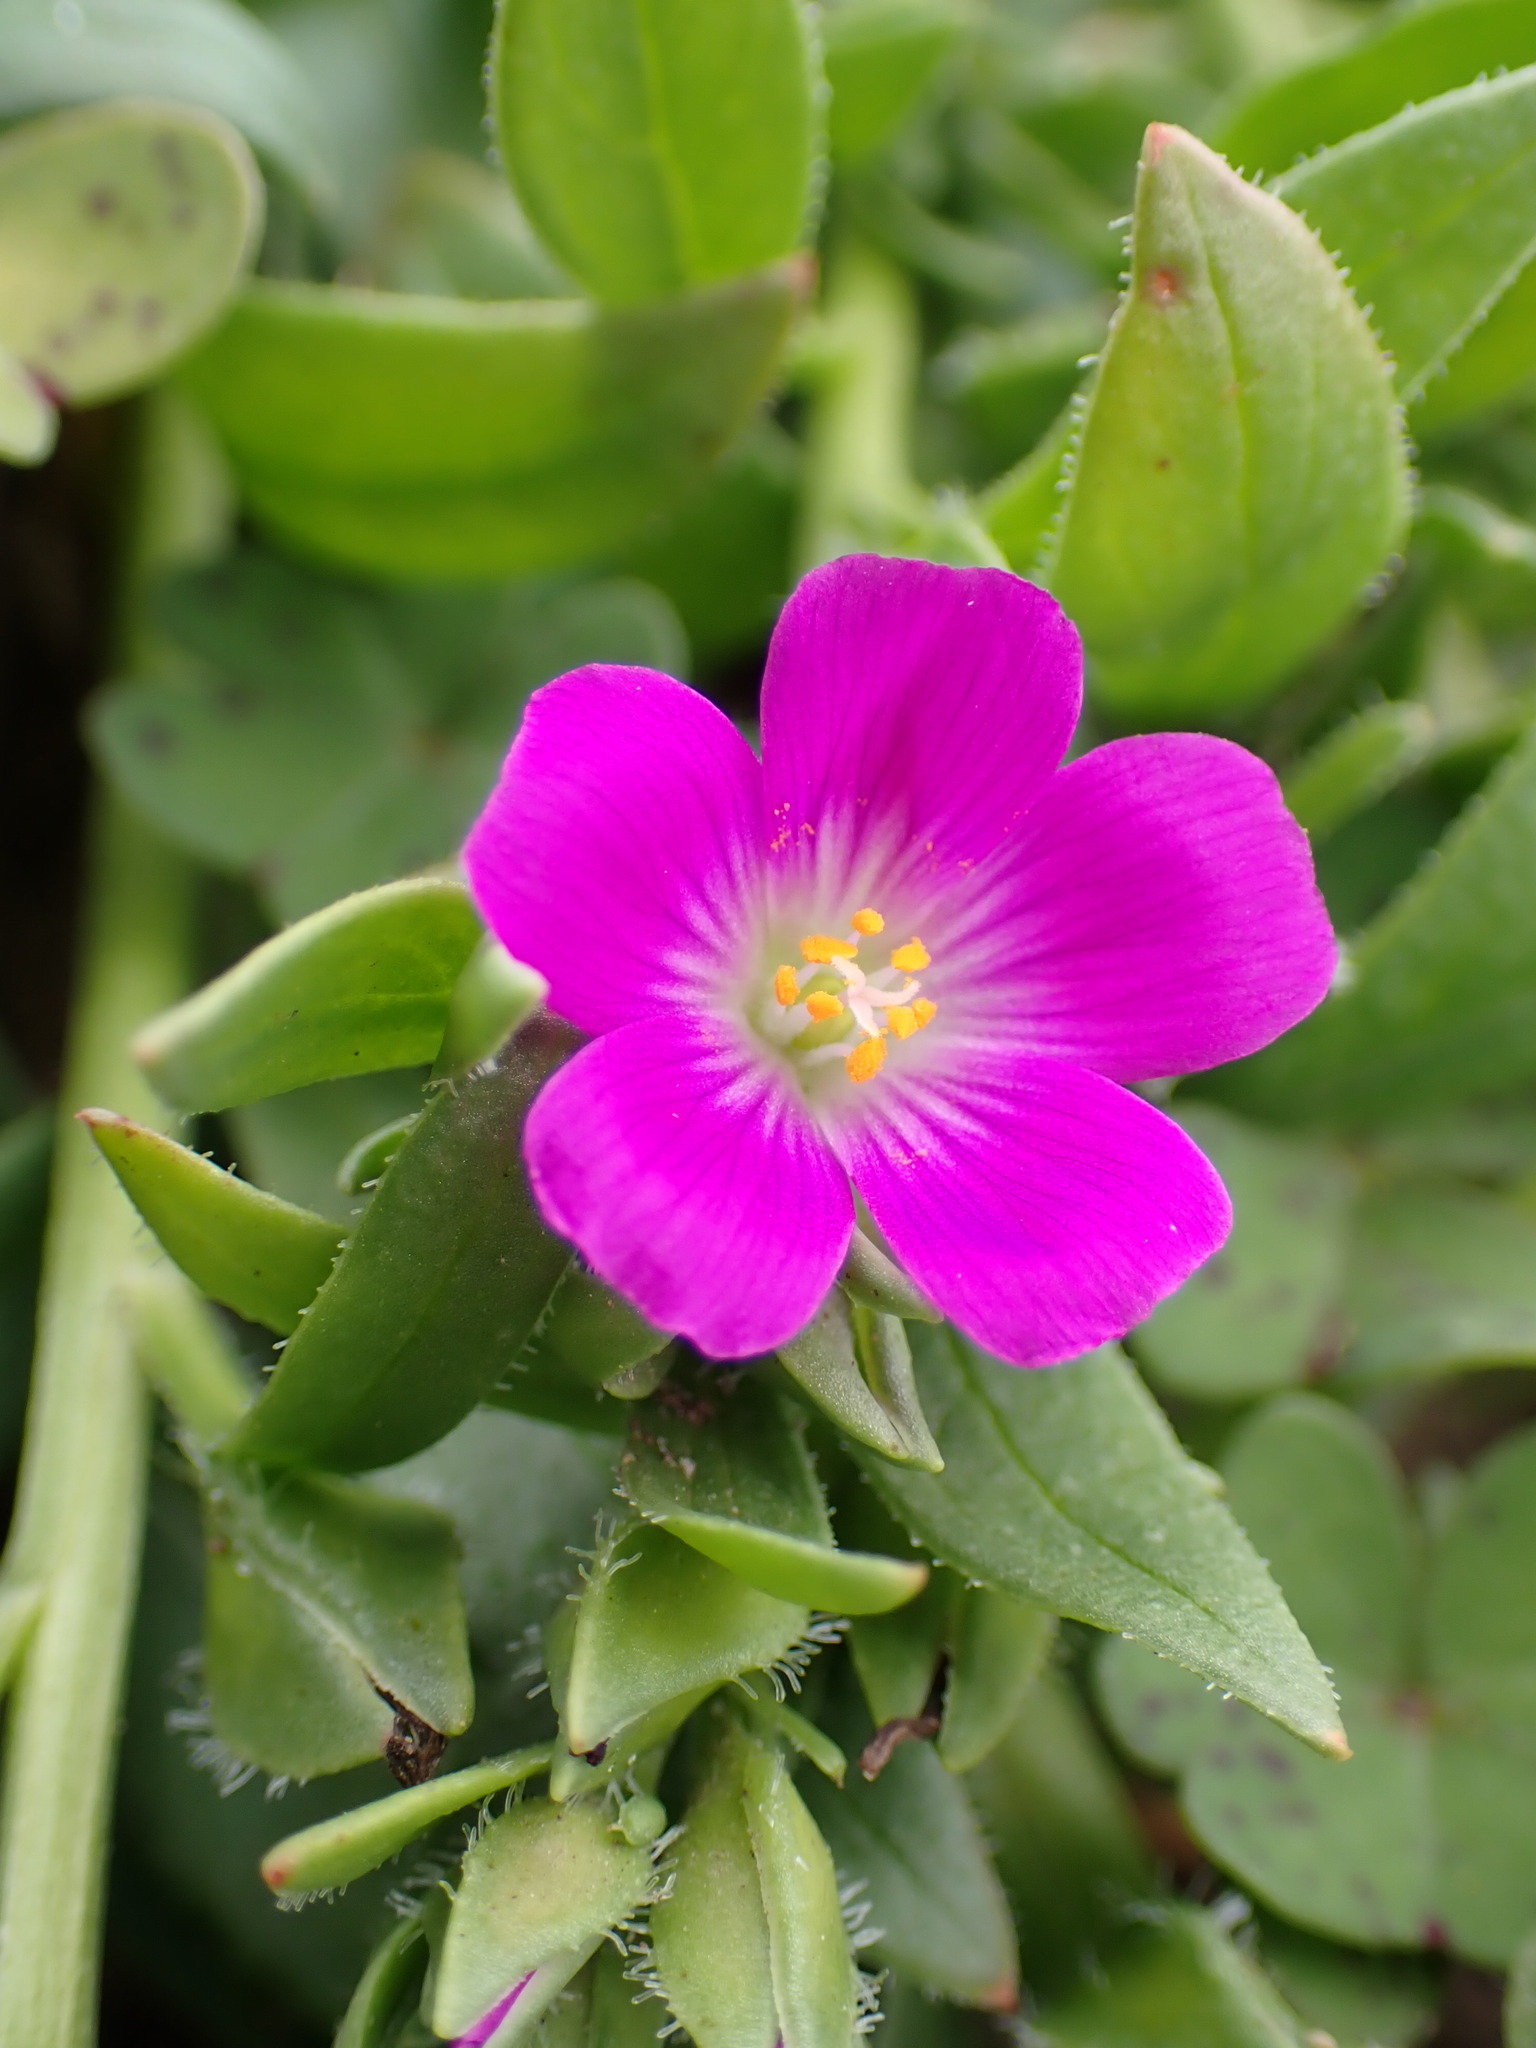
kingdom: Plantae
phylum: Tracheophyta
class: Magnoliopsida
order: Caryophyllales
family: Montiaceae
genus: Calandrinia
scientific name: Calandrinia menziesii
